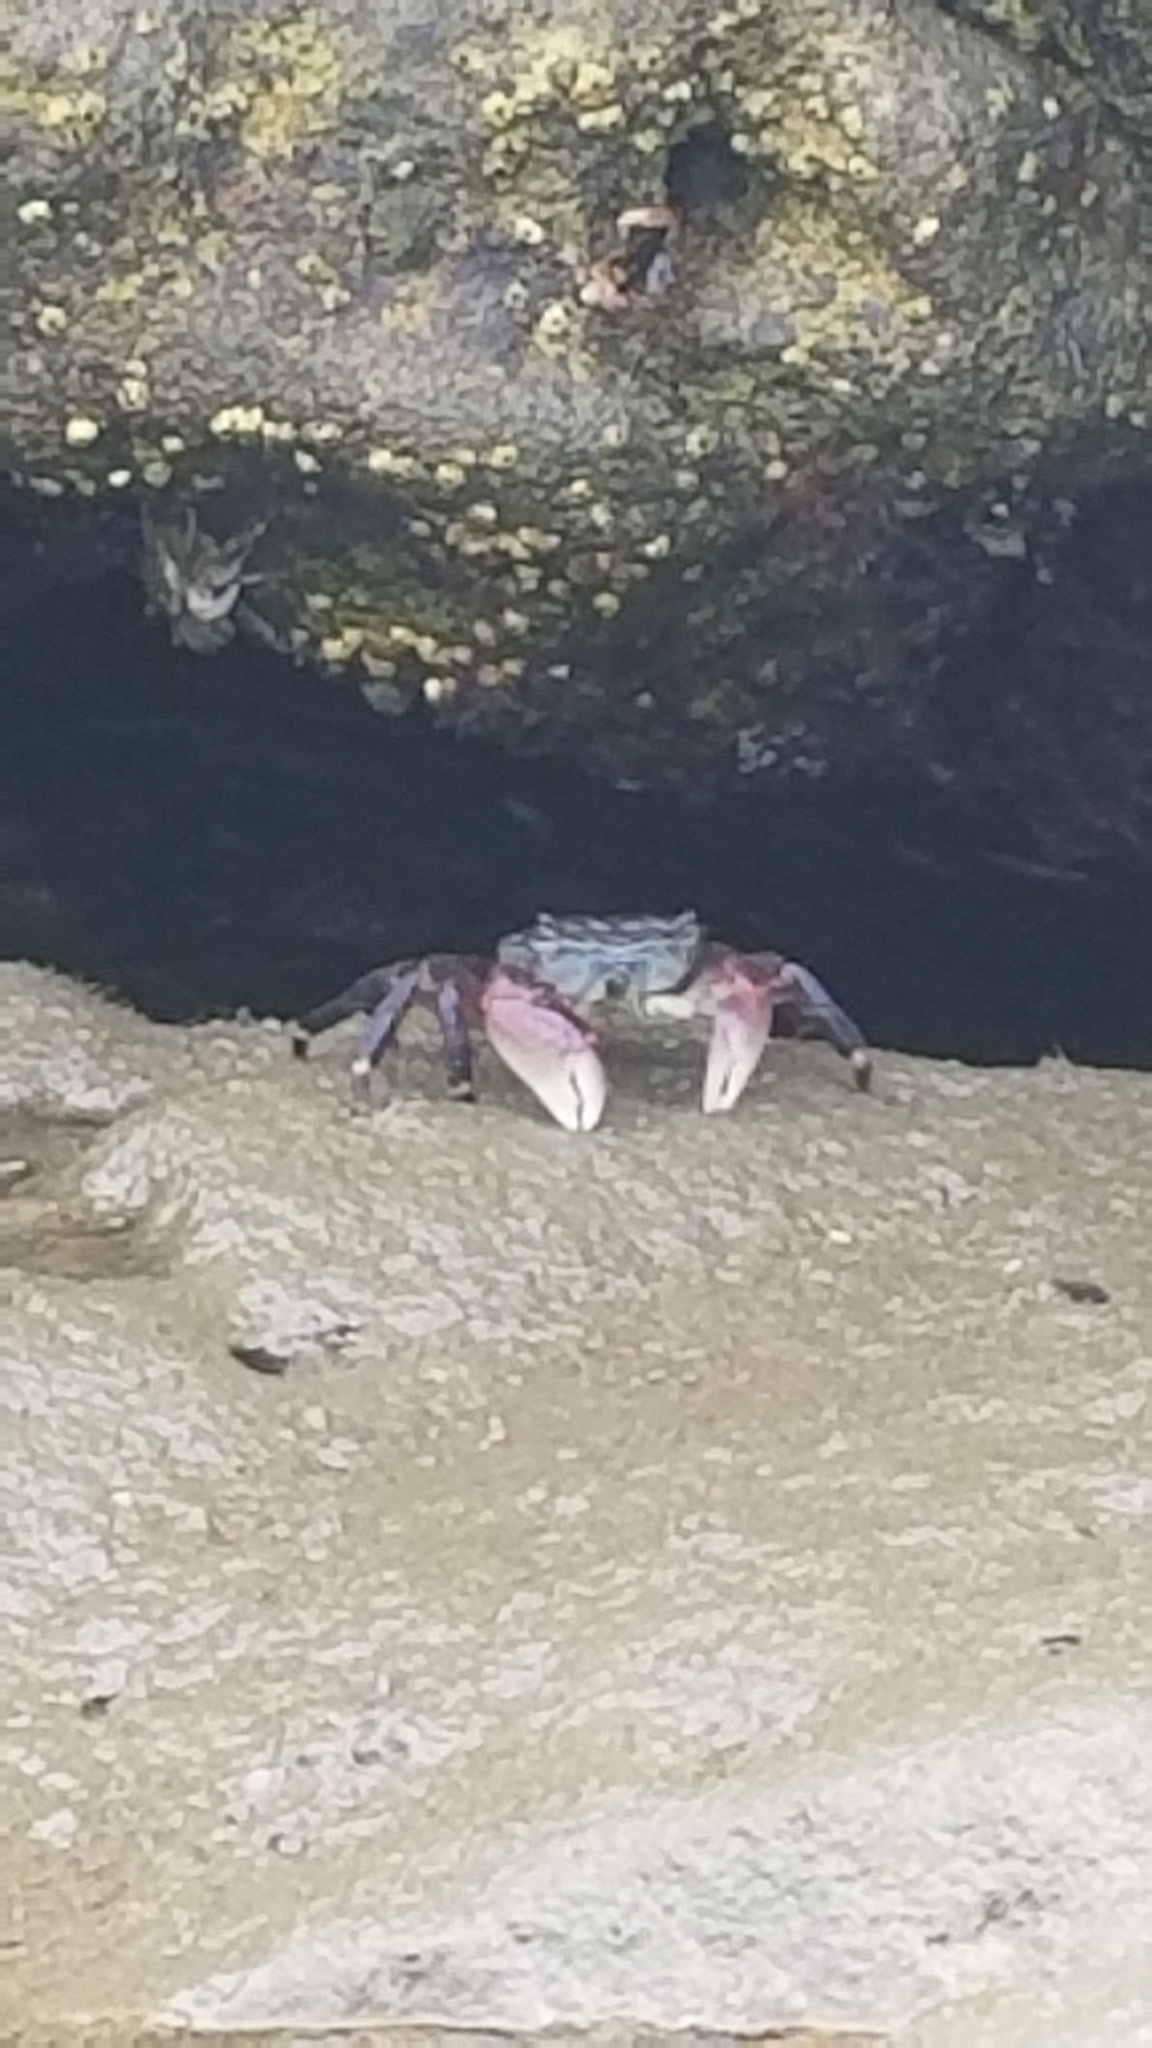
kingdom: Animalia
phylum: Arthropoda
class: Malacostraca
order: Decapoda
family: Grapsidae
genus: Pachygrapsus
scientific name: Pachygrapsus crassipes
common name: Striped shore crab
